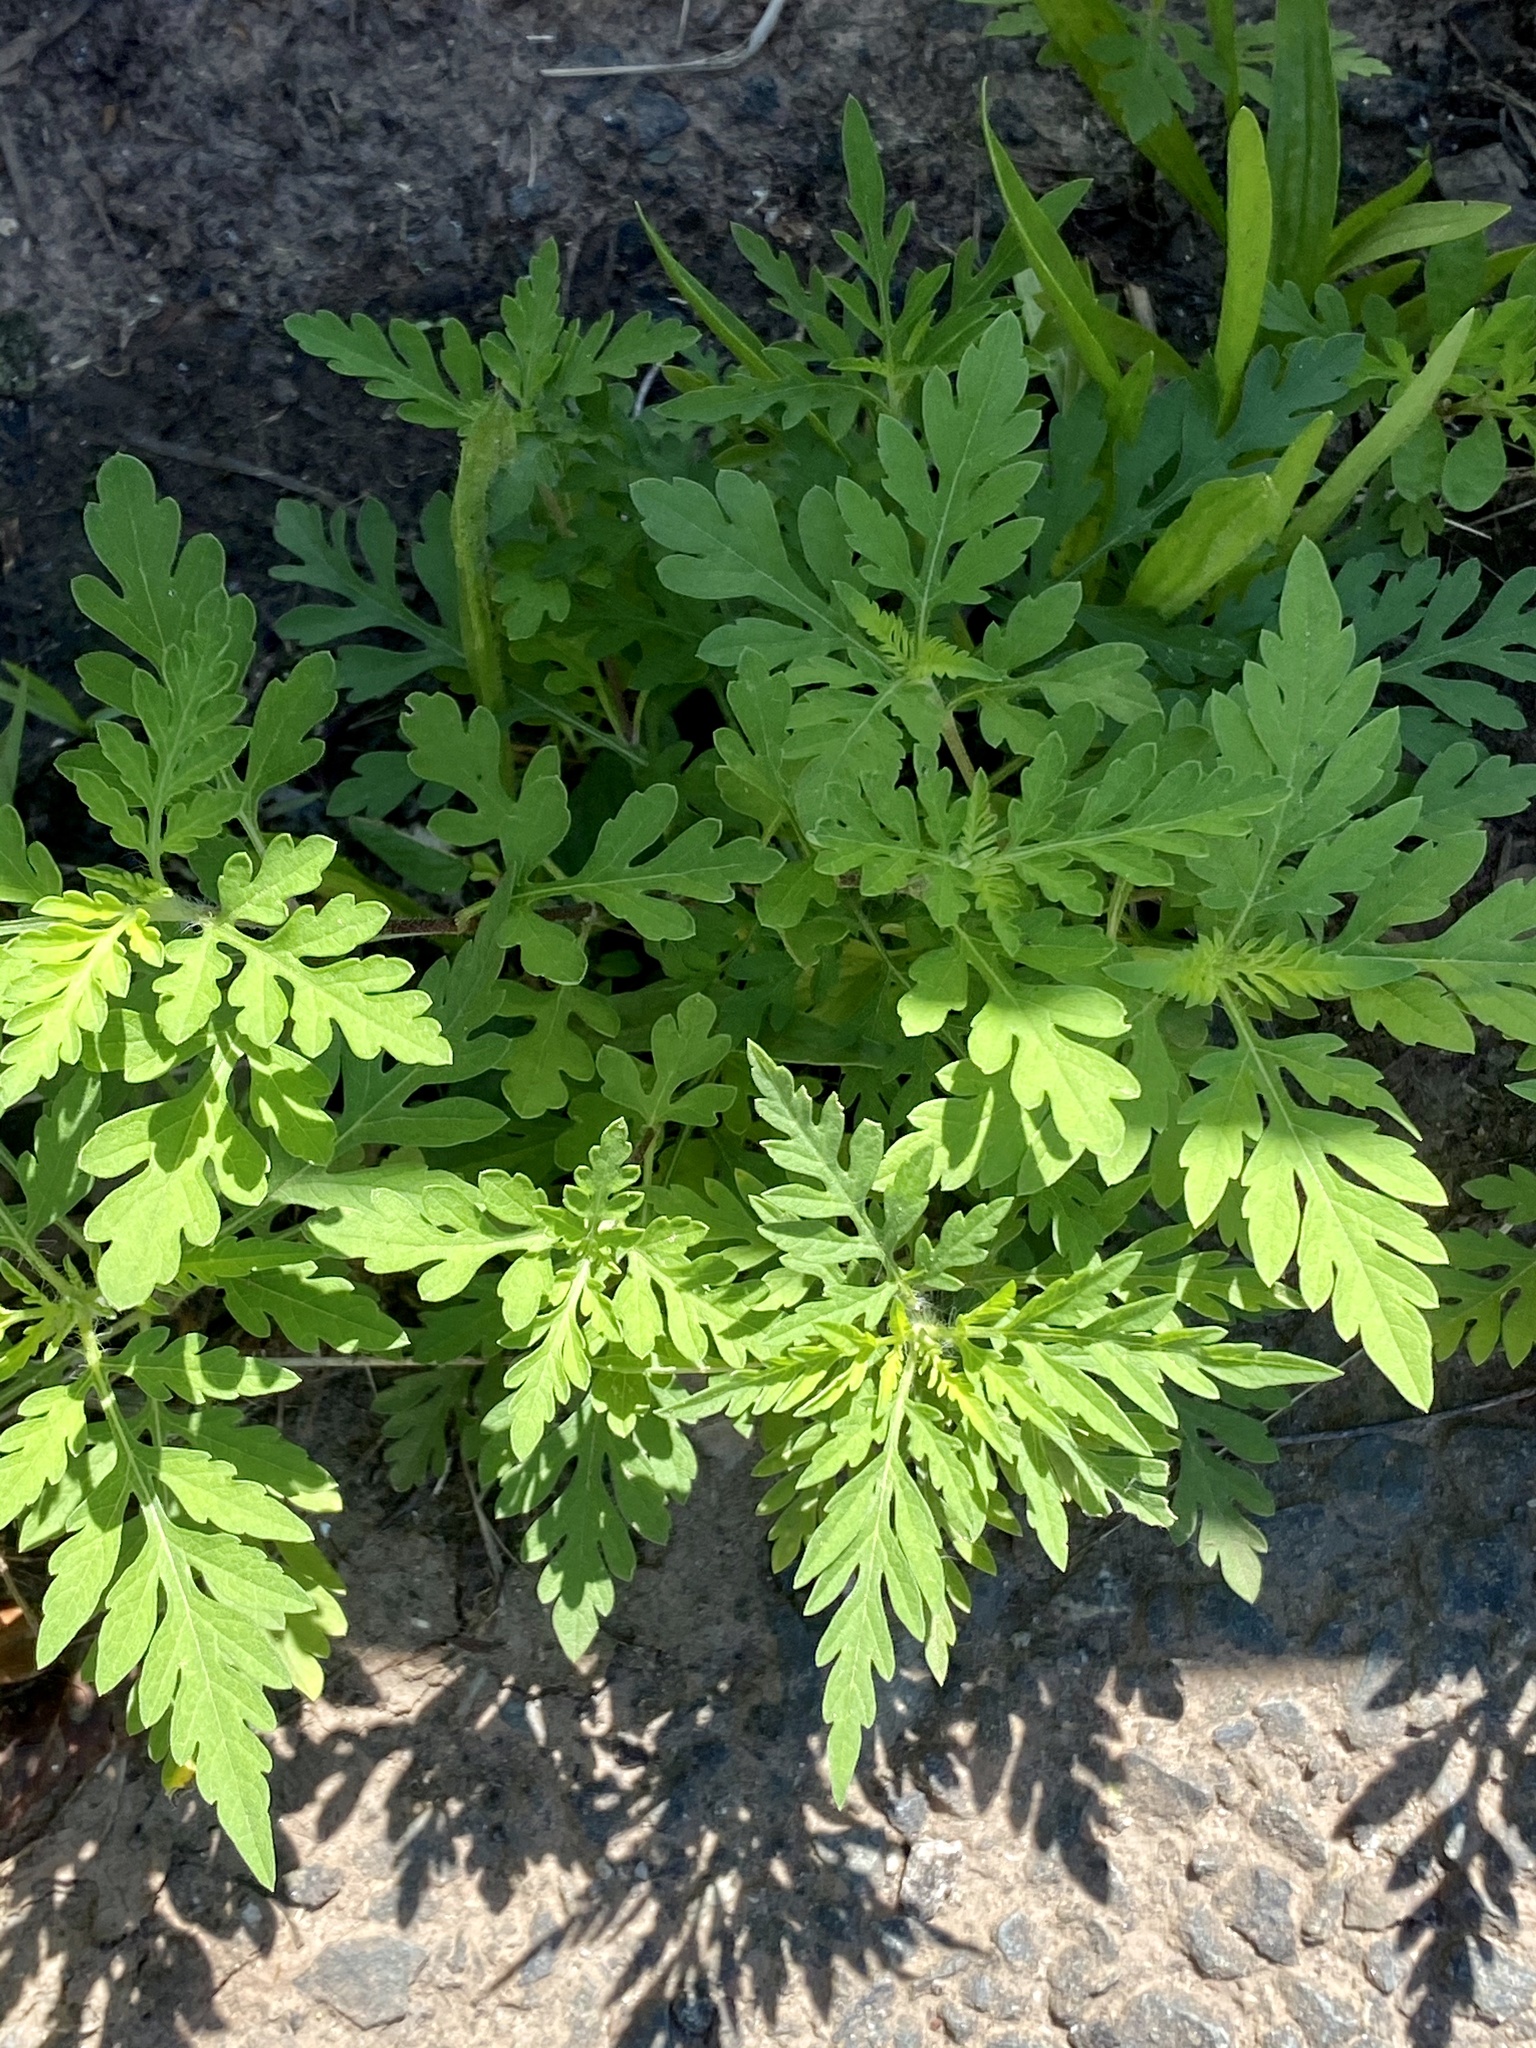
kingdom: Plantae
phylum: Tracheophyta
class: Magnoliopsida
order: Asterales
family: Asteraceae
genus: Ambrosia
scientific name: Ambrosia artemisiifolia
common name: Annual ragweed
